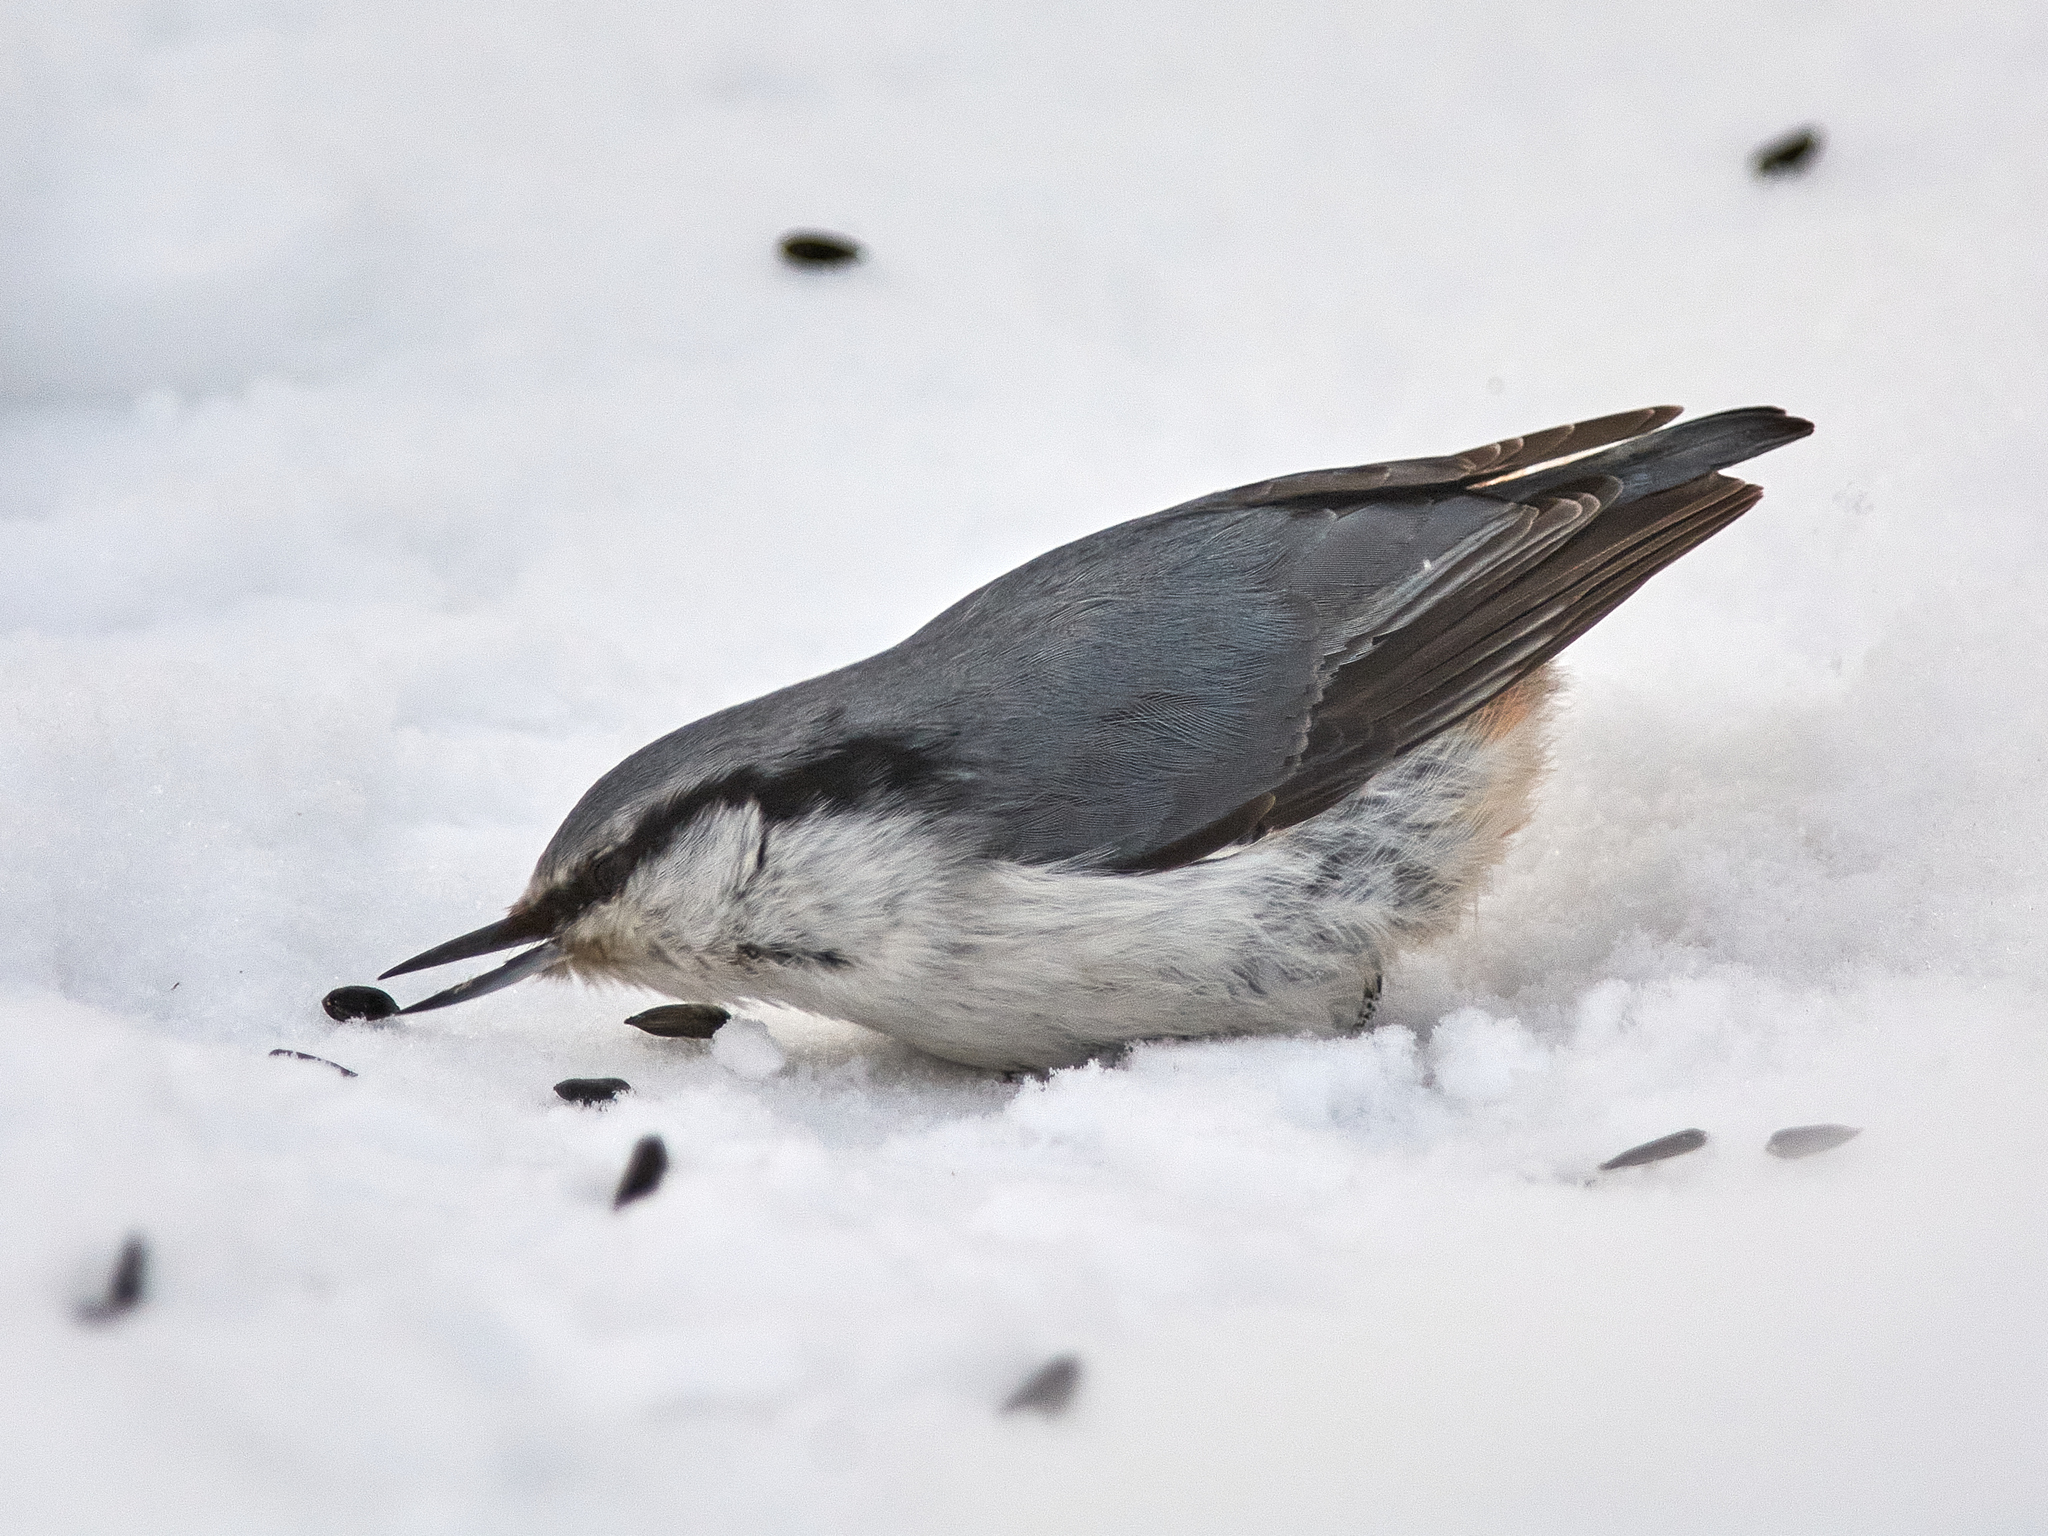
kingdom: Animalia
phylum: Chordata
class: Aves
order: Passeriformes
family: Sittidae
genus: Sitta
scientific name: Sitta europaea
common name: Eurasian nuthatch
